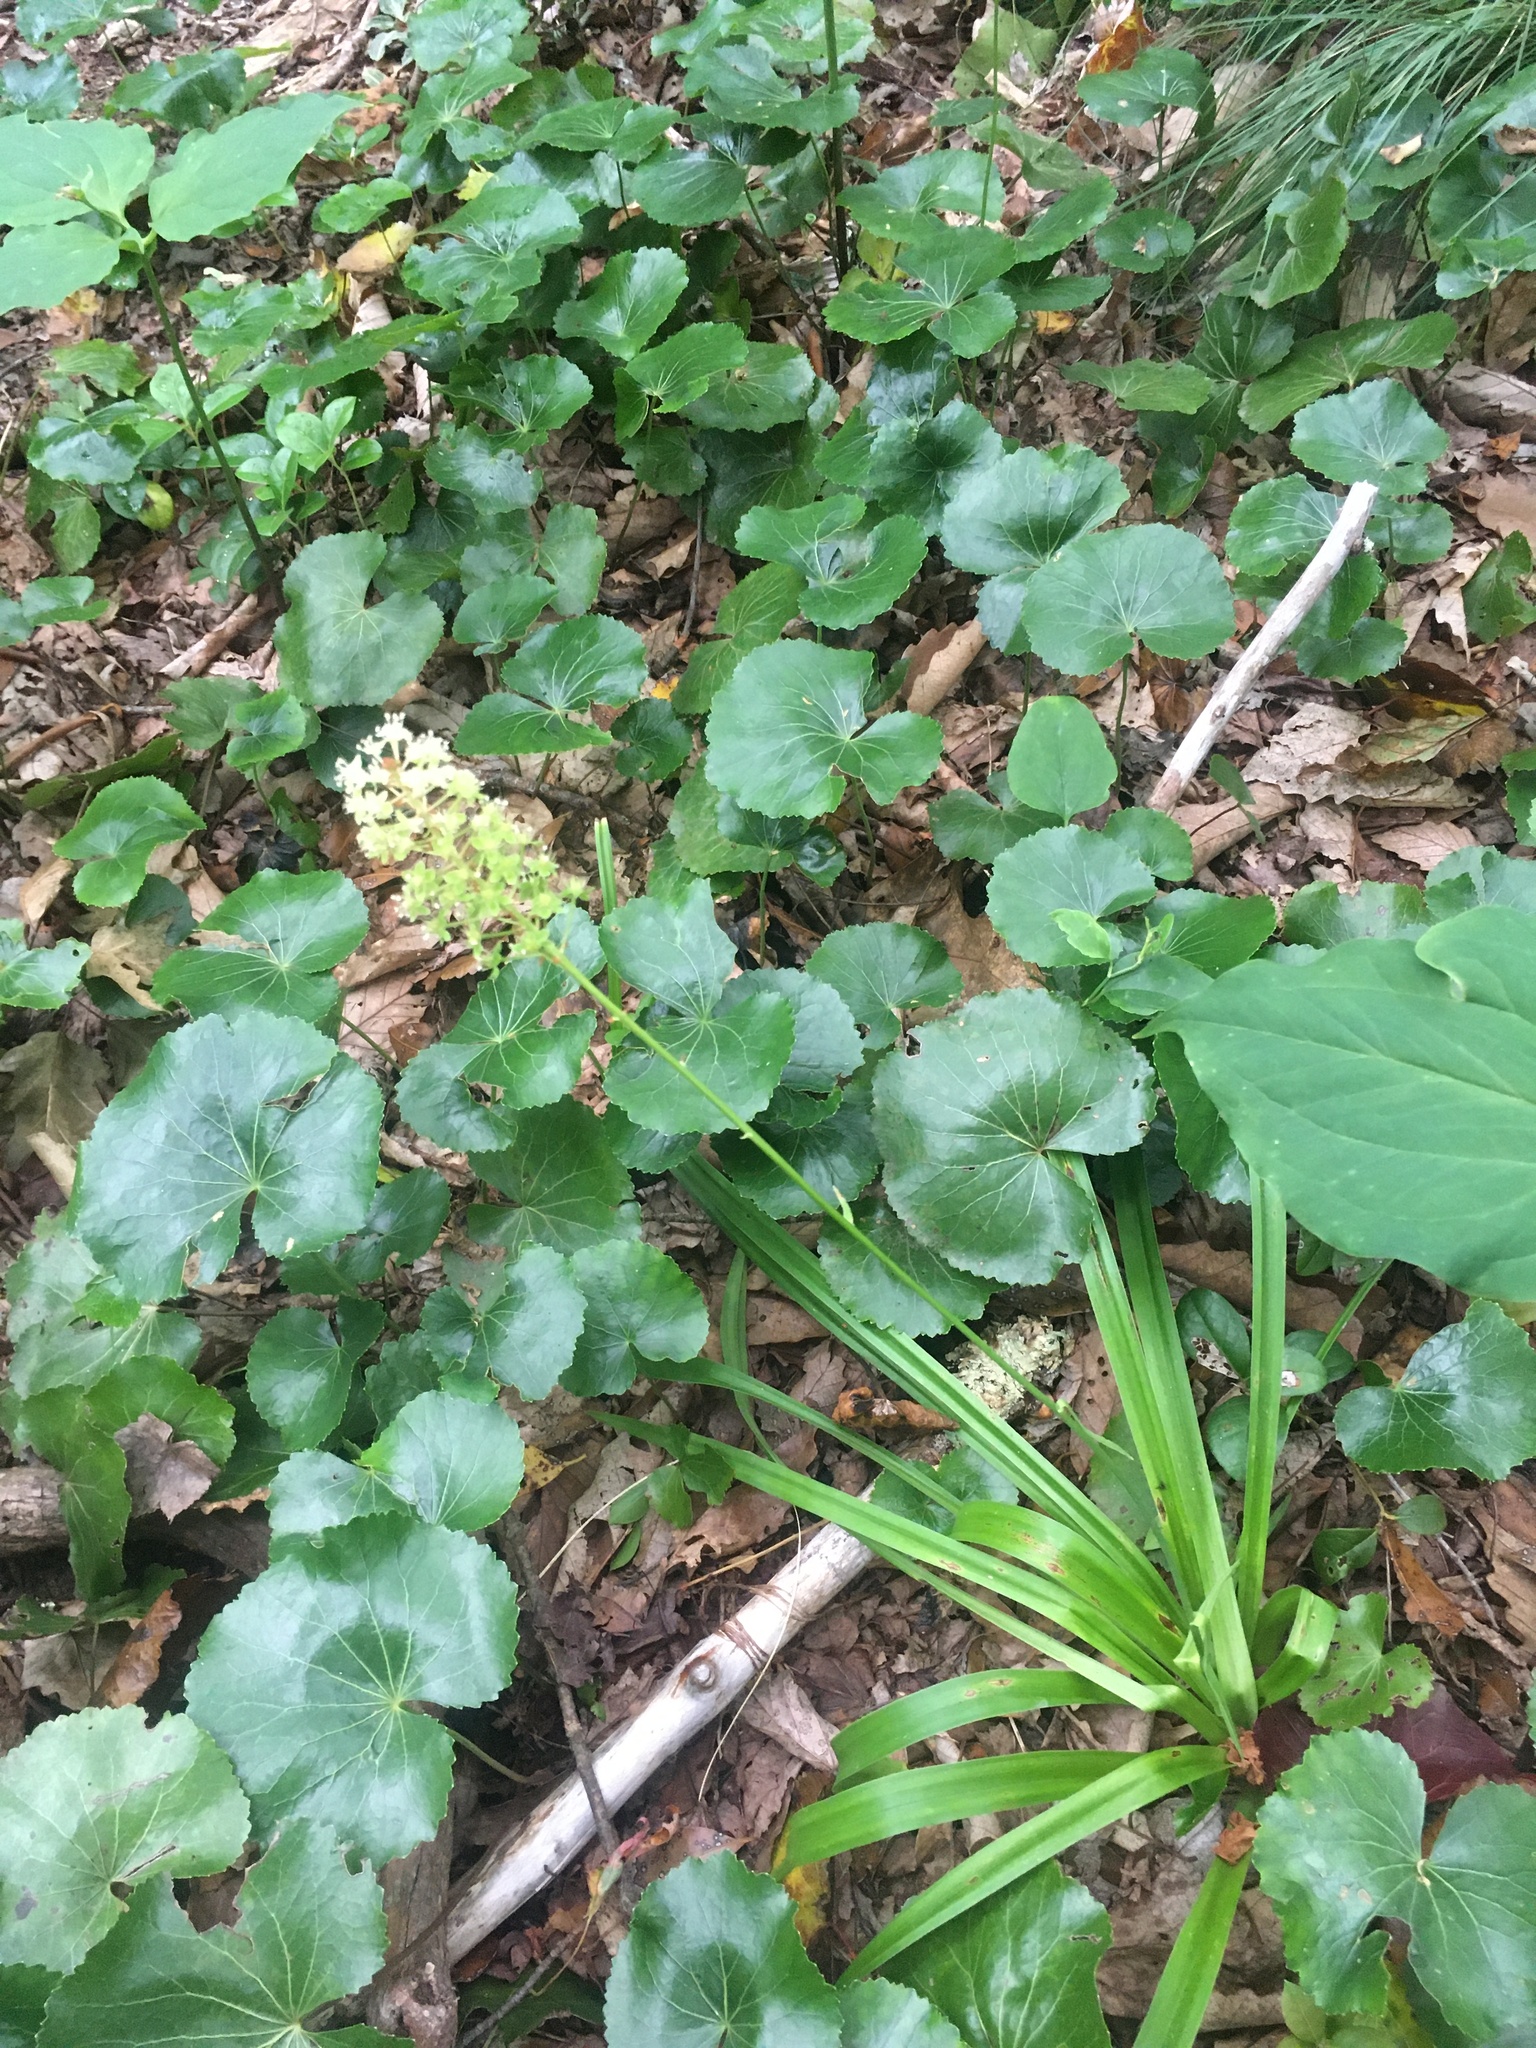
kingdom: Plantae
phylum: Tracheophyta
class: Liliopsida
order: Liliales
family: Melanthiaceae
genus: Amianthium
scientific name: Amianthium muscitoxicum
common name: Fly-poison
